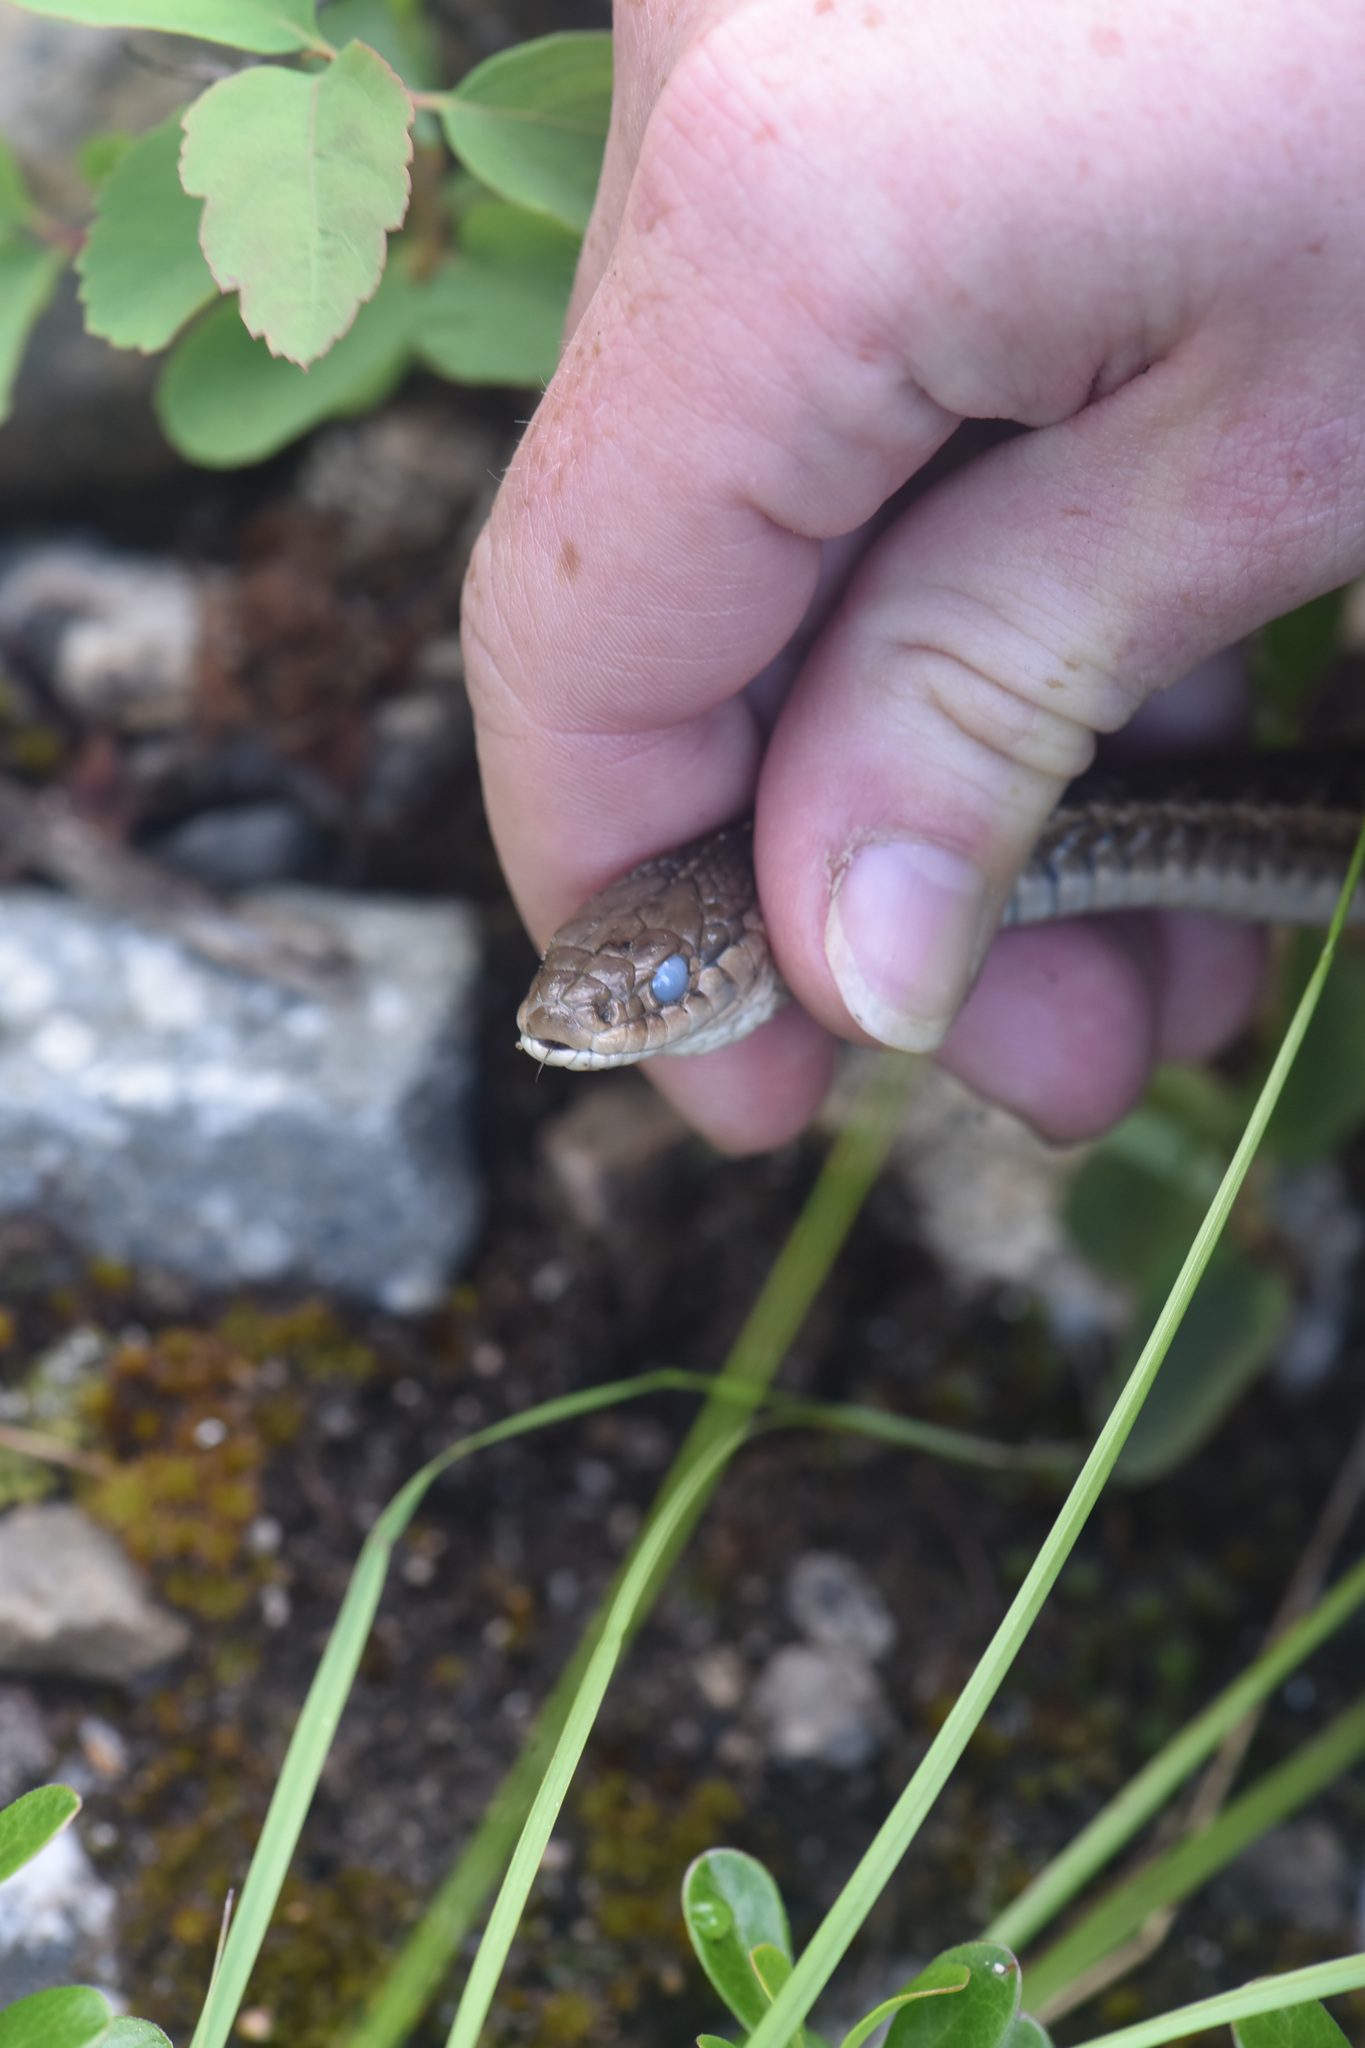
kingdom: Animalia
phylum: Chordata
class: Squamata
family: Colubridae
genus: Thamnophis
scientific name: Thamnophis elegans
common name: Western terrestrial garter snake
